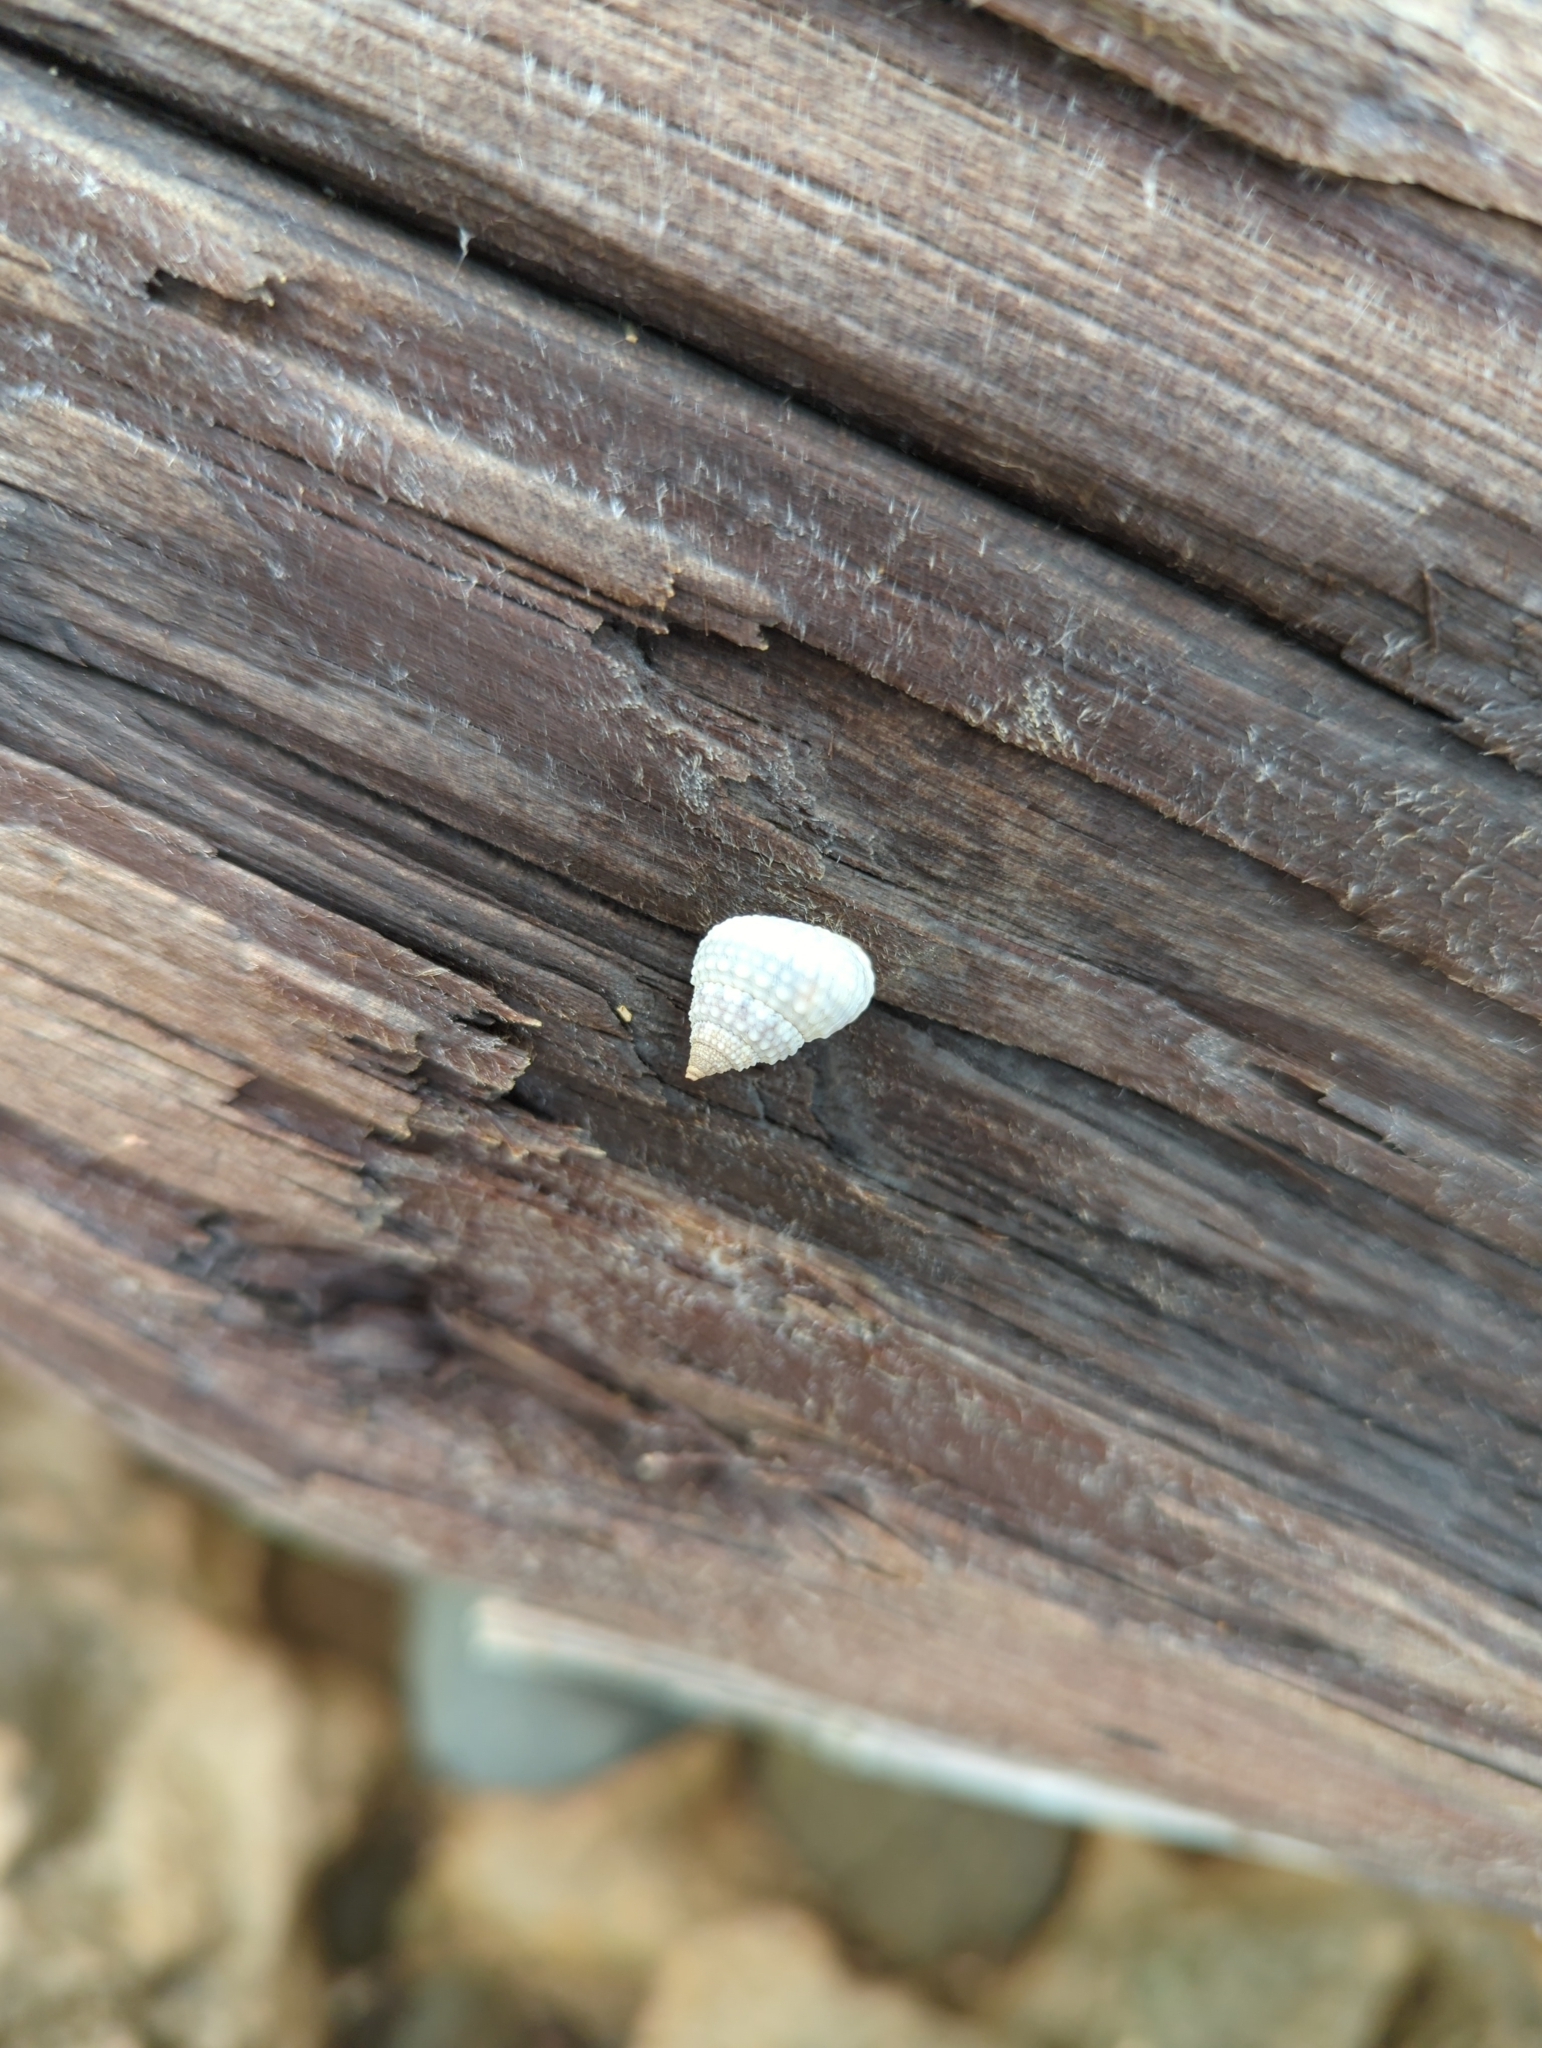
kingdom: Animalia
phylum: Mollusca
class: Gastropoda
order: Littorinimorpha
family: Littorinidae
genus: Cenchritis
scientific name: Cenchritis muricatus
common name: Beaded periwinkle
